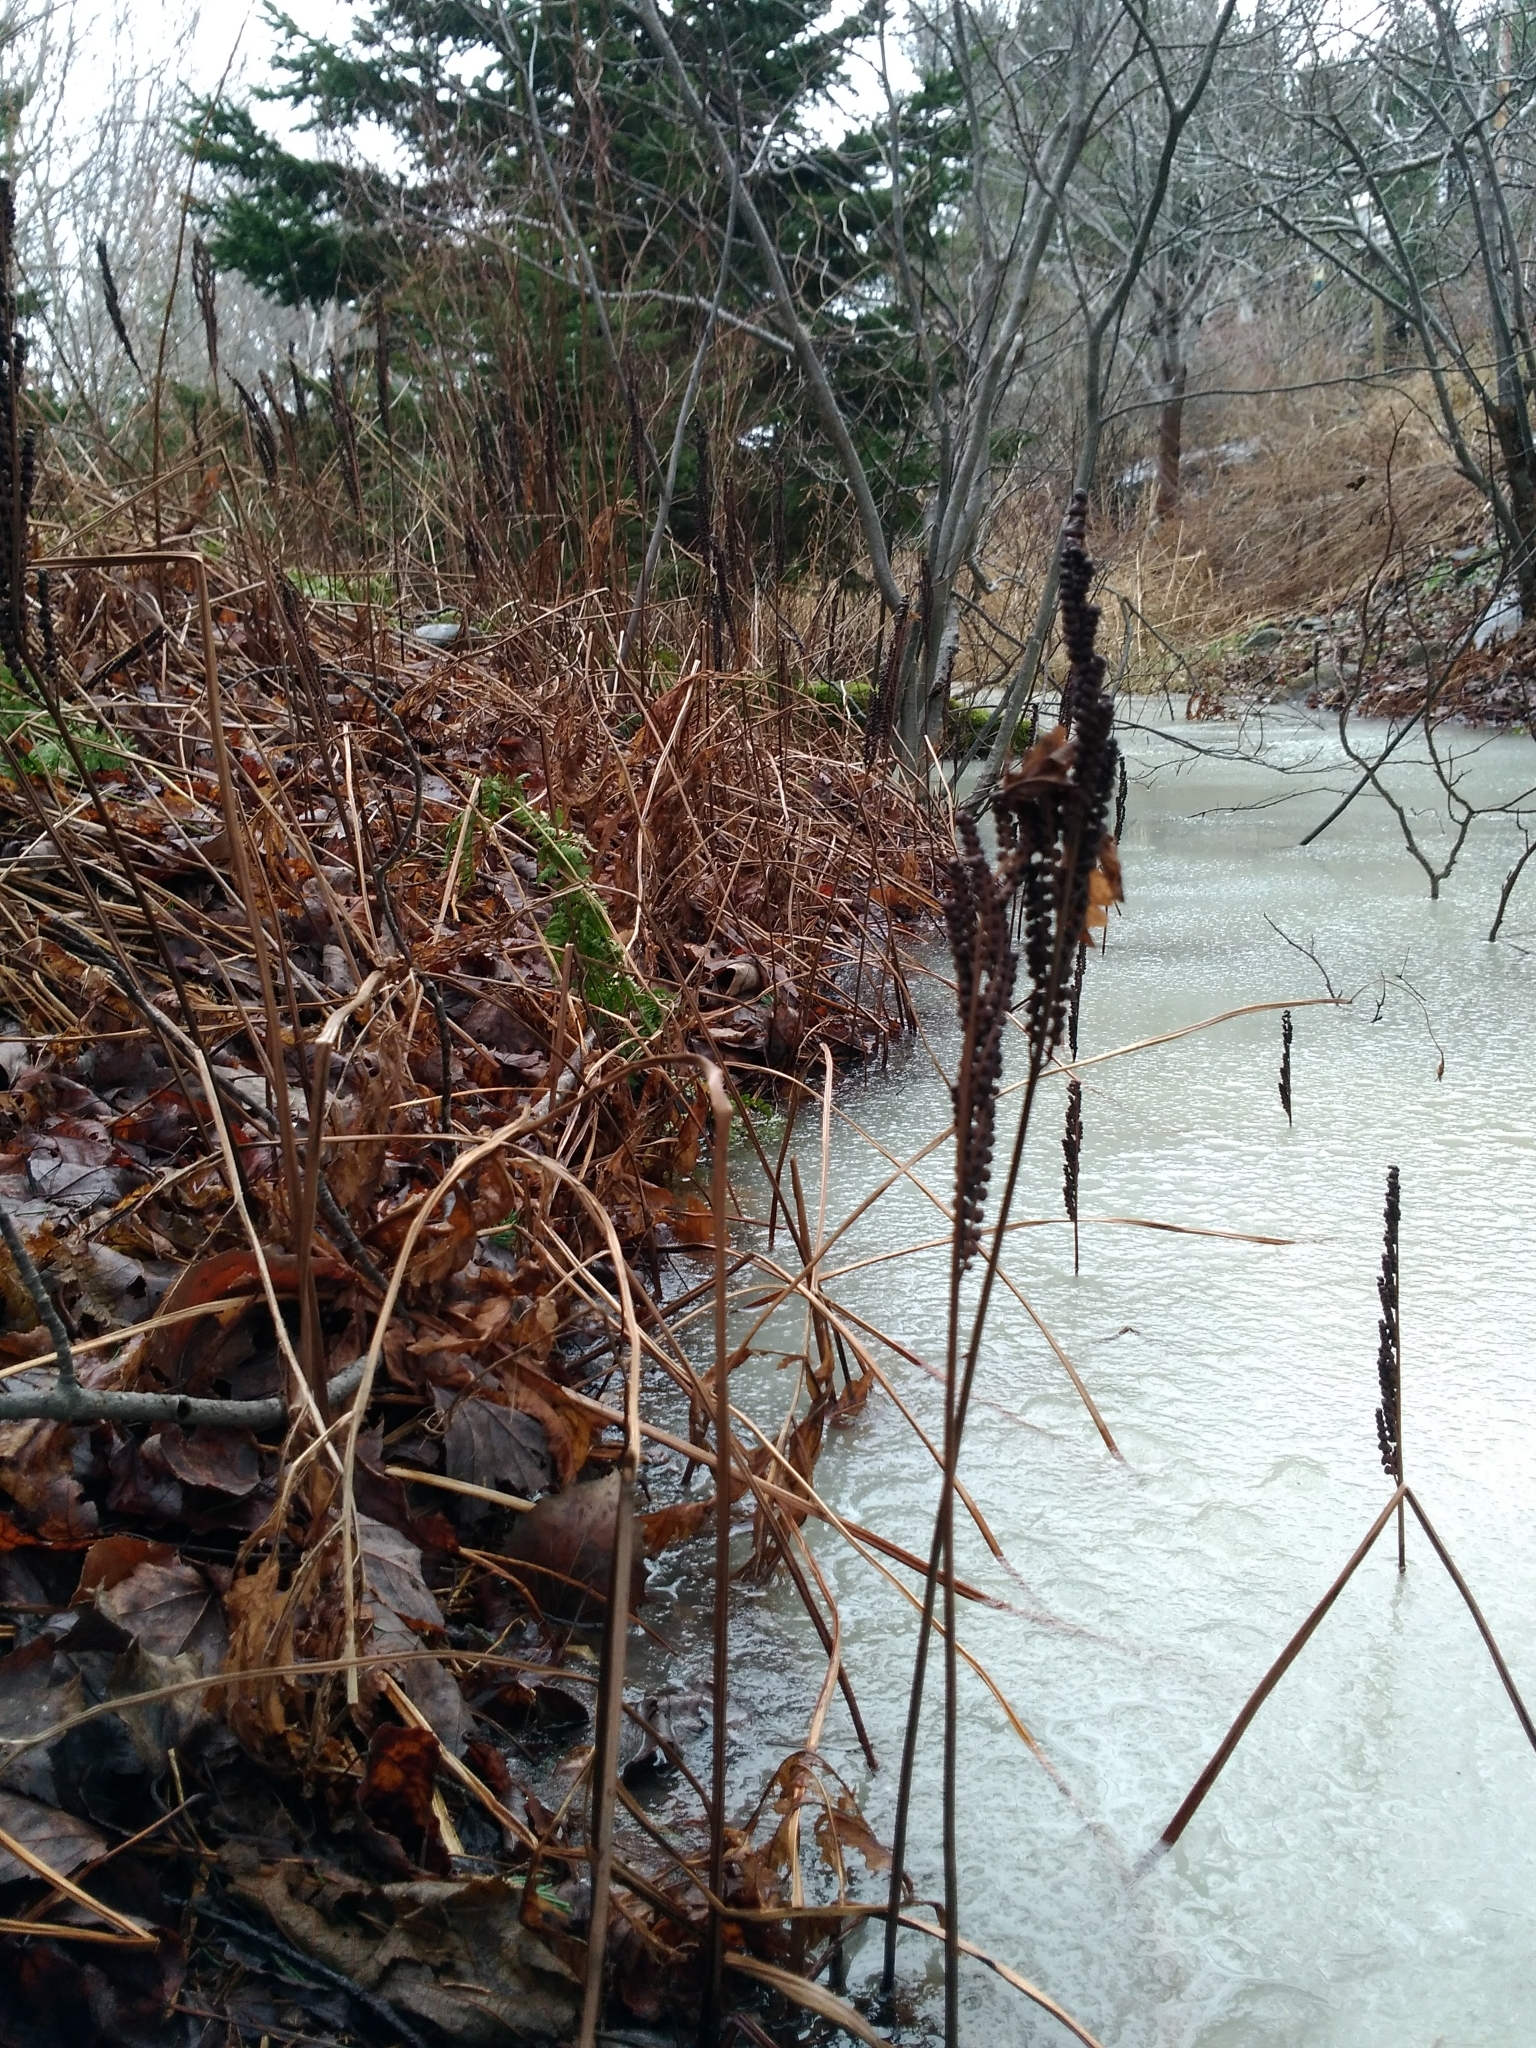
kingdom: Plantae
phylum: Tracheophyta
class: Polypodiopsida
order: Polypodiales
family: Onocleaceae
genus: Onoclea
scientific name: Onoclea sensibilis
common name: Sensitive fern
